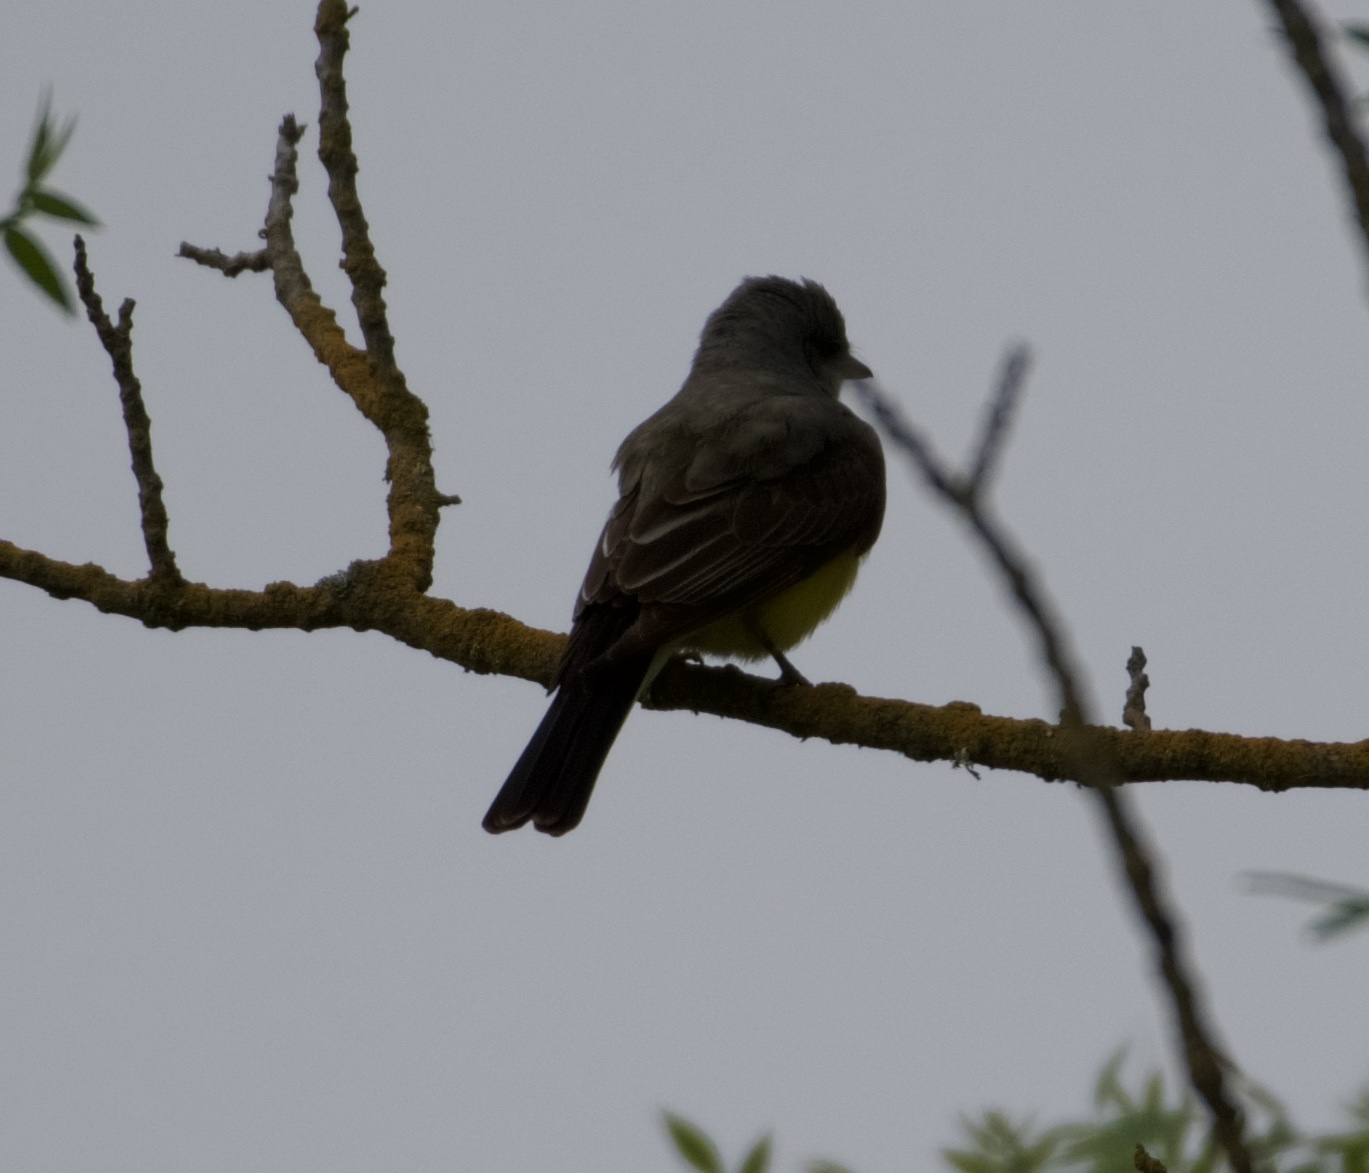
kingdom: Animalia
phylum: Chordata
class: Aves
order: Passeriformes
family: Tyrannidae
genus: Tyrannus
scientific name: Tyrannus verticalis
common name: Western kingbird
